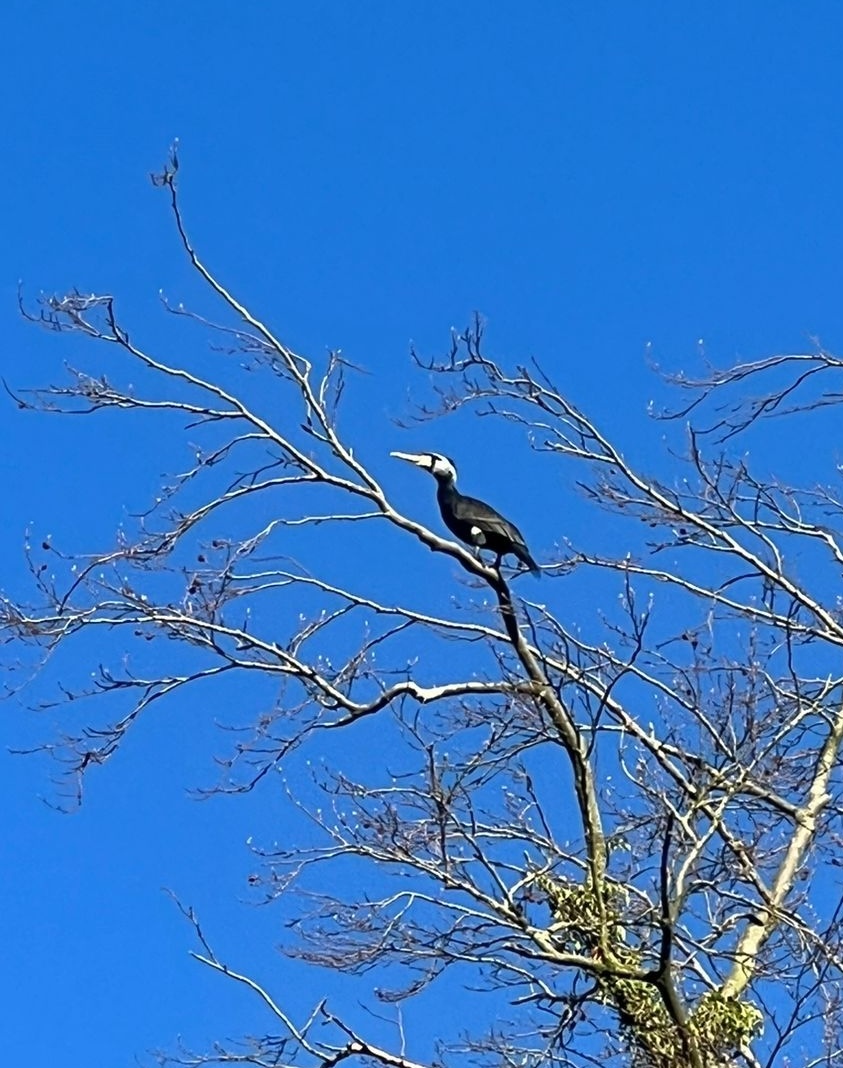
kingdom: Animalia
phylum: Chordata
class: Aves
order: Suliformes
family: Phalacrocoracidae
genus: Phalacrocorax
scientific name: Phalacrocorax carbo
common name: Great cormorant
